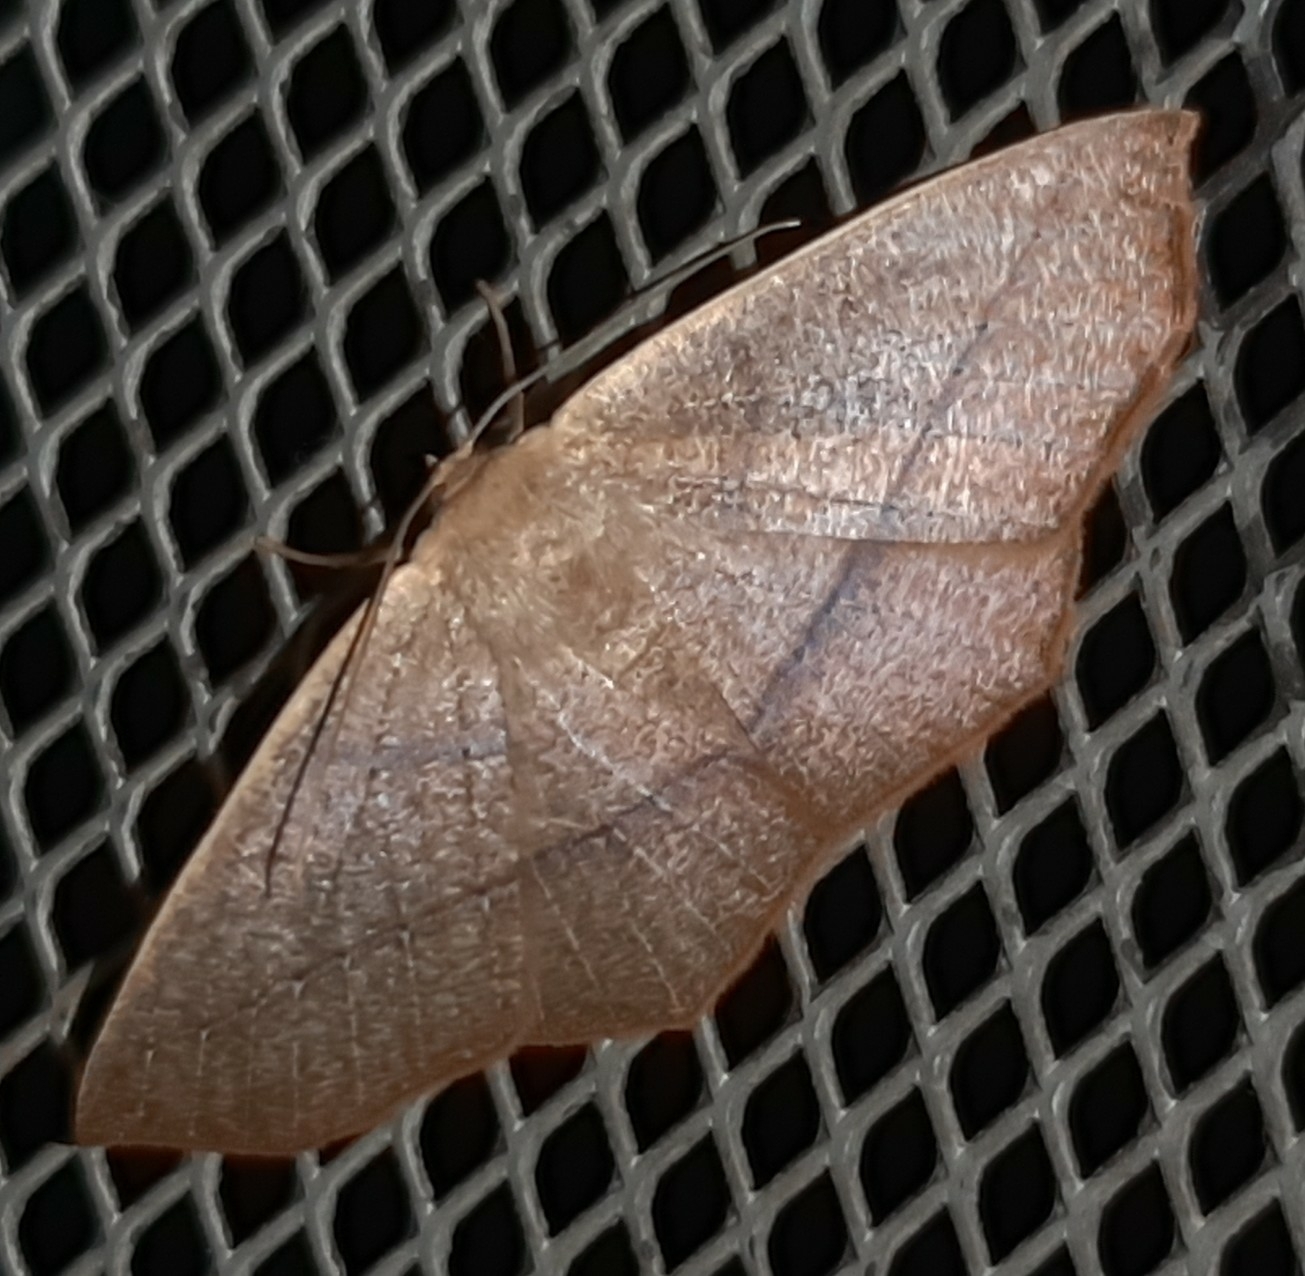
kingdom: Animalia
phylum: Arthropoda
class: Insecta
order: Lepidoptera
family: Geometridae
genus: Sabulodes
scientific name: Sabulodes arses
